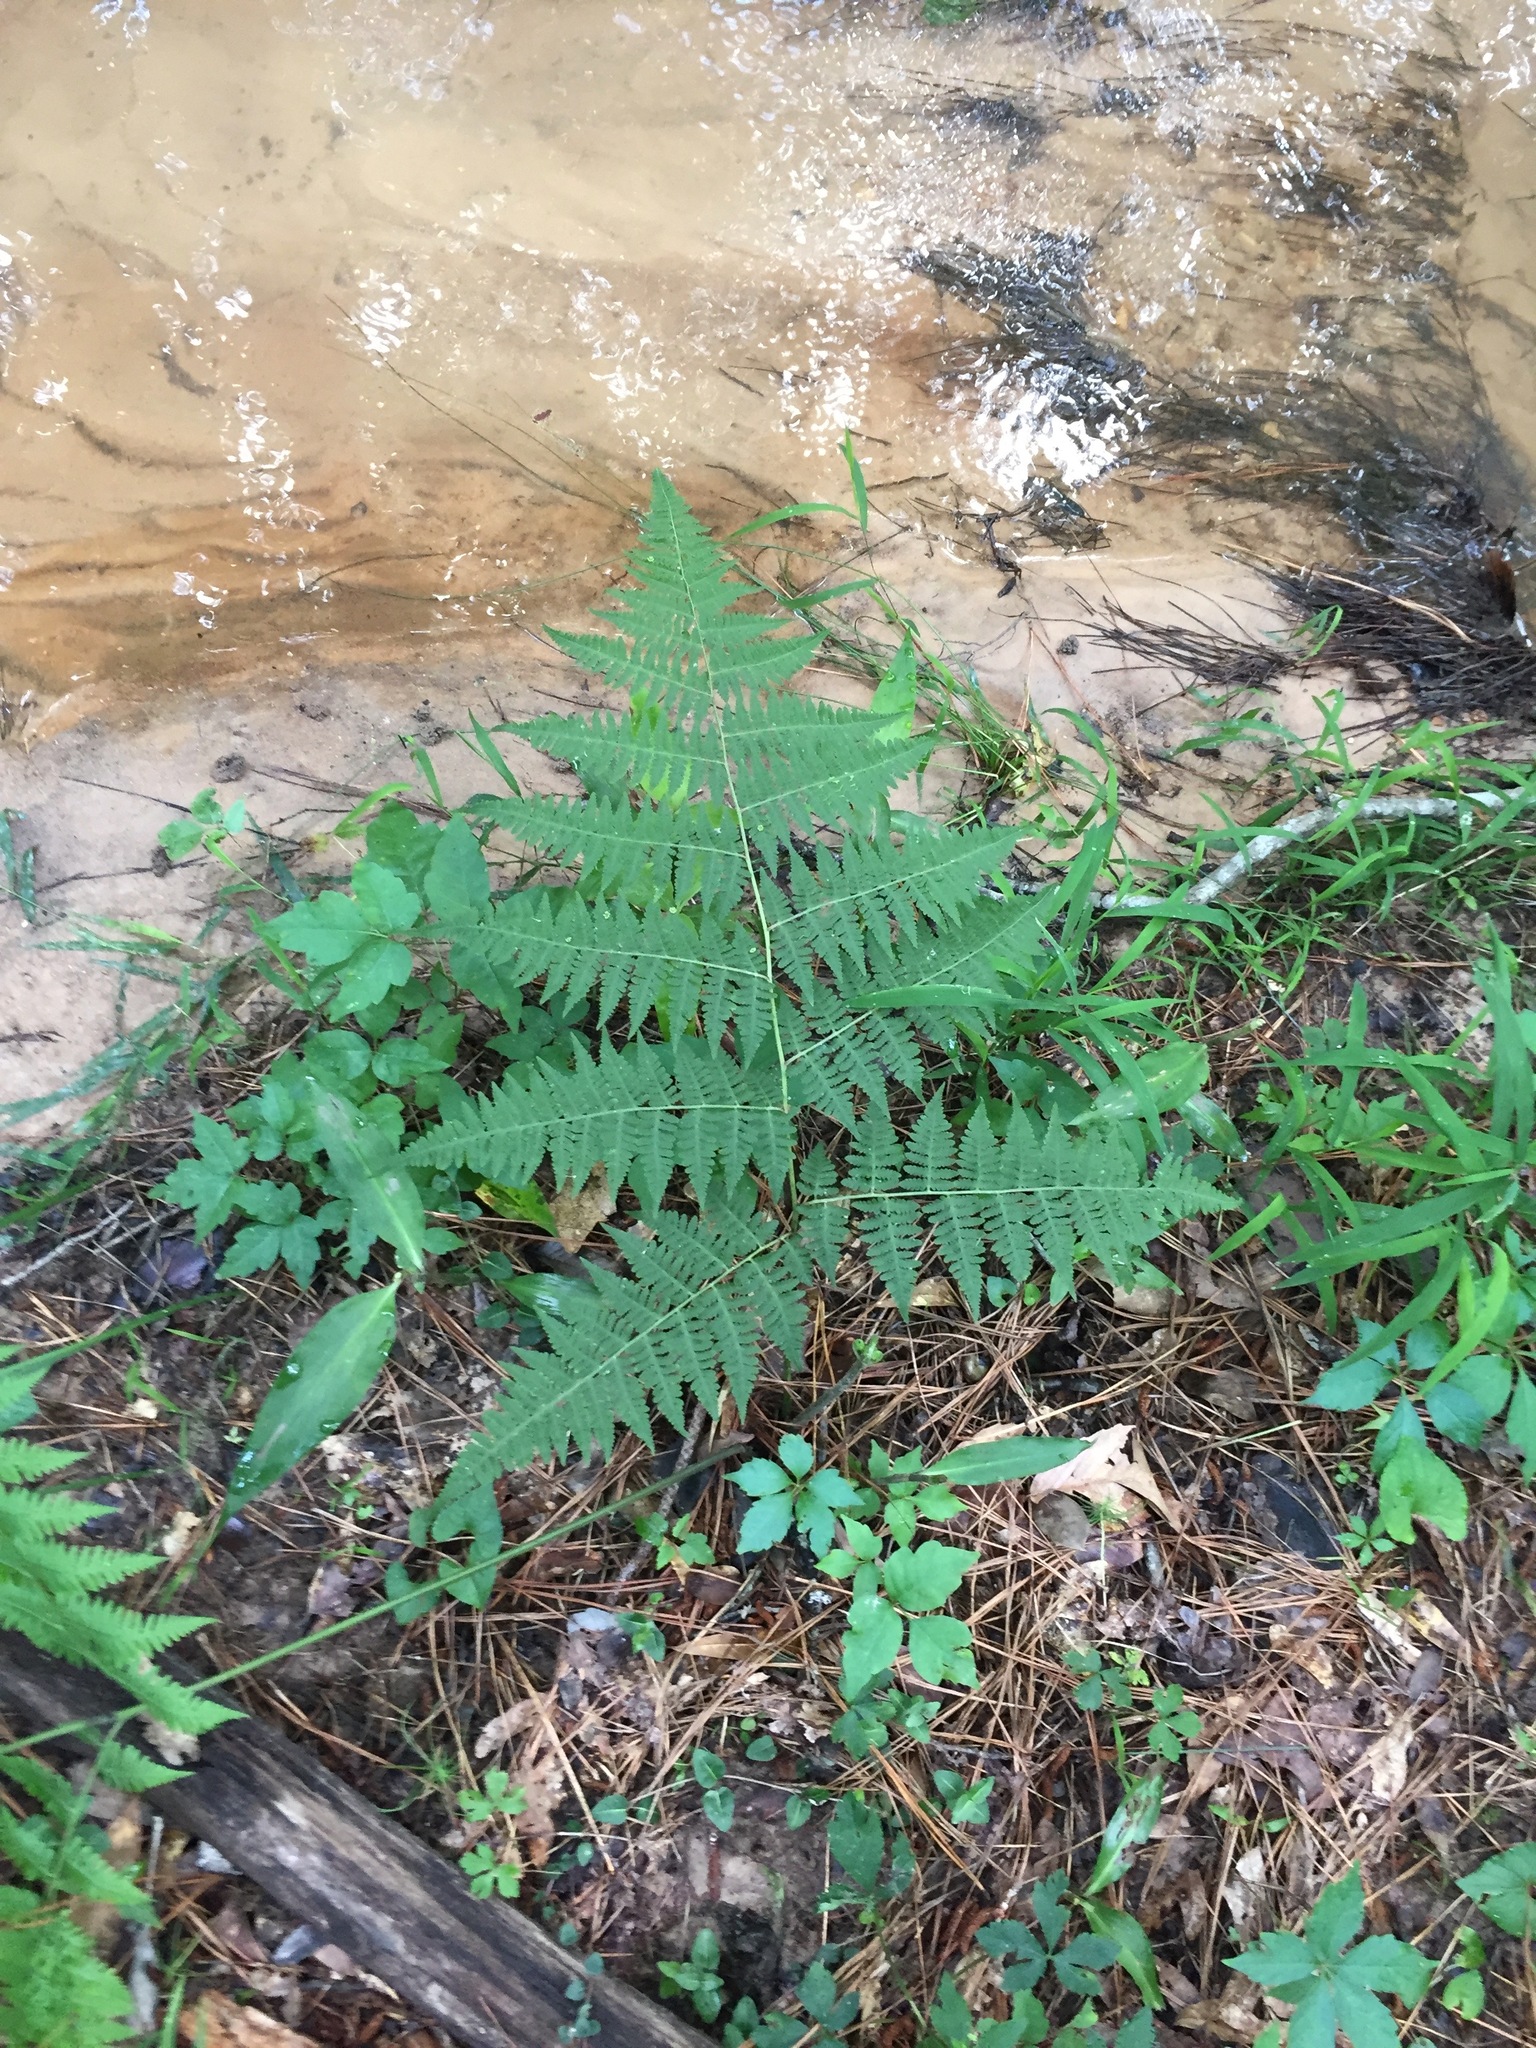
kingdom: Plantae
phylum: Tracheophyta
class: Polypodiopsida
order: Polypodiales
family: Thelypteridaceae
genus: Macrothelypteris
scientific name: Macrothelypteris torresiana
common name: Swordfern
